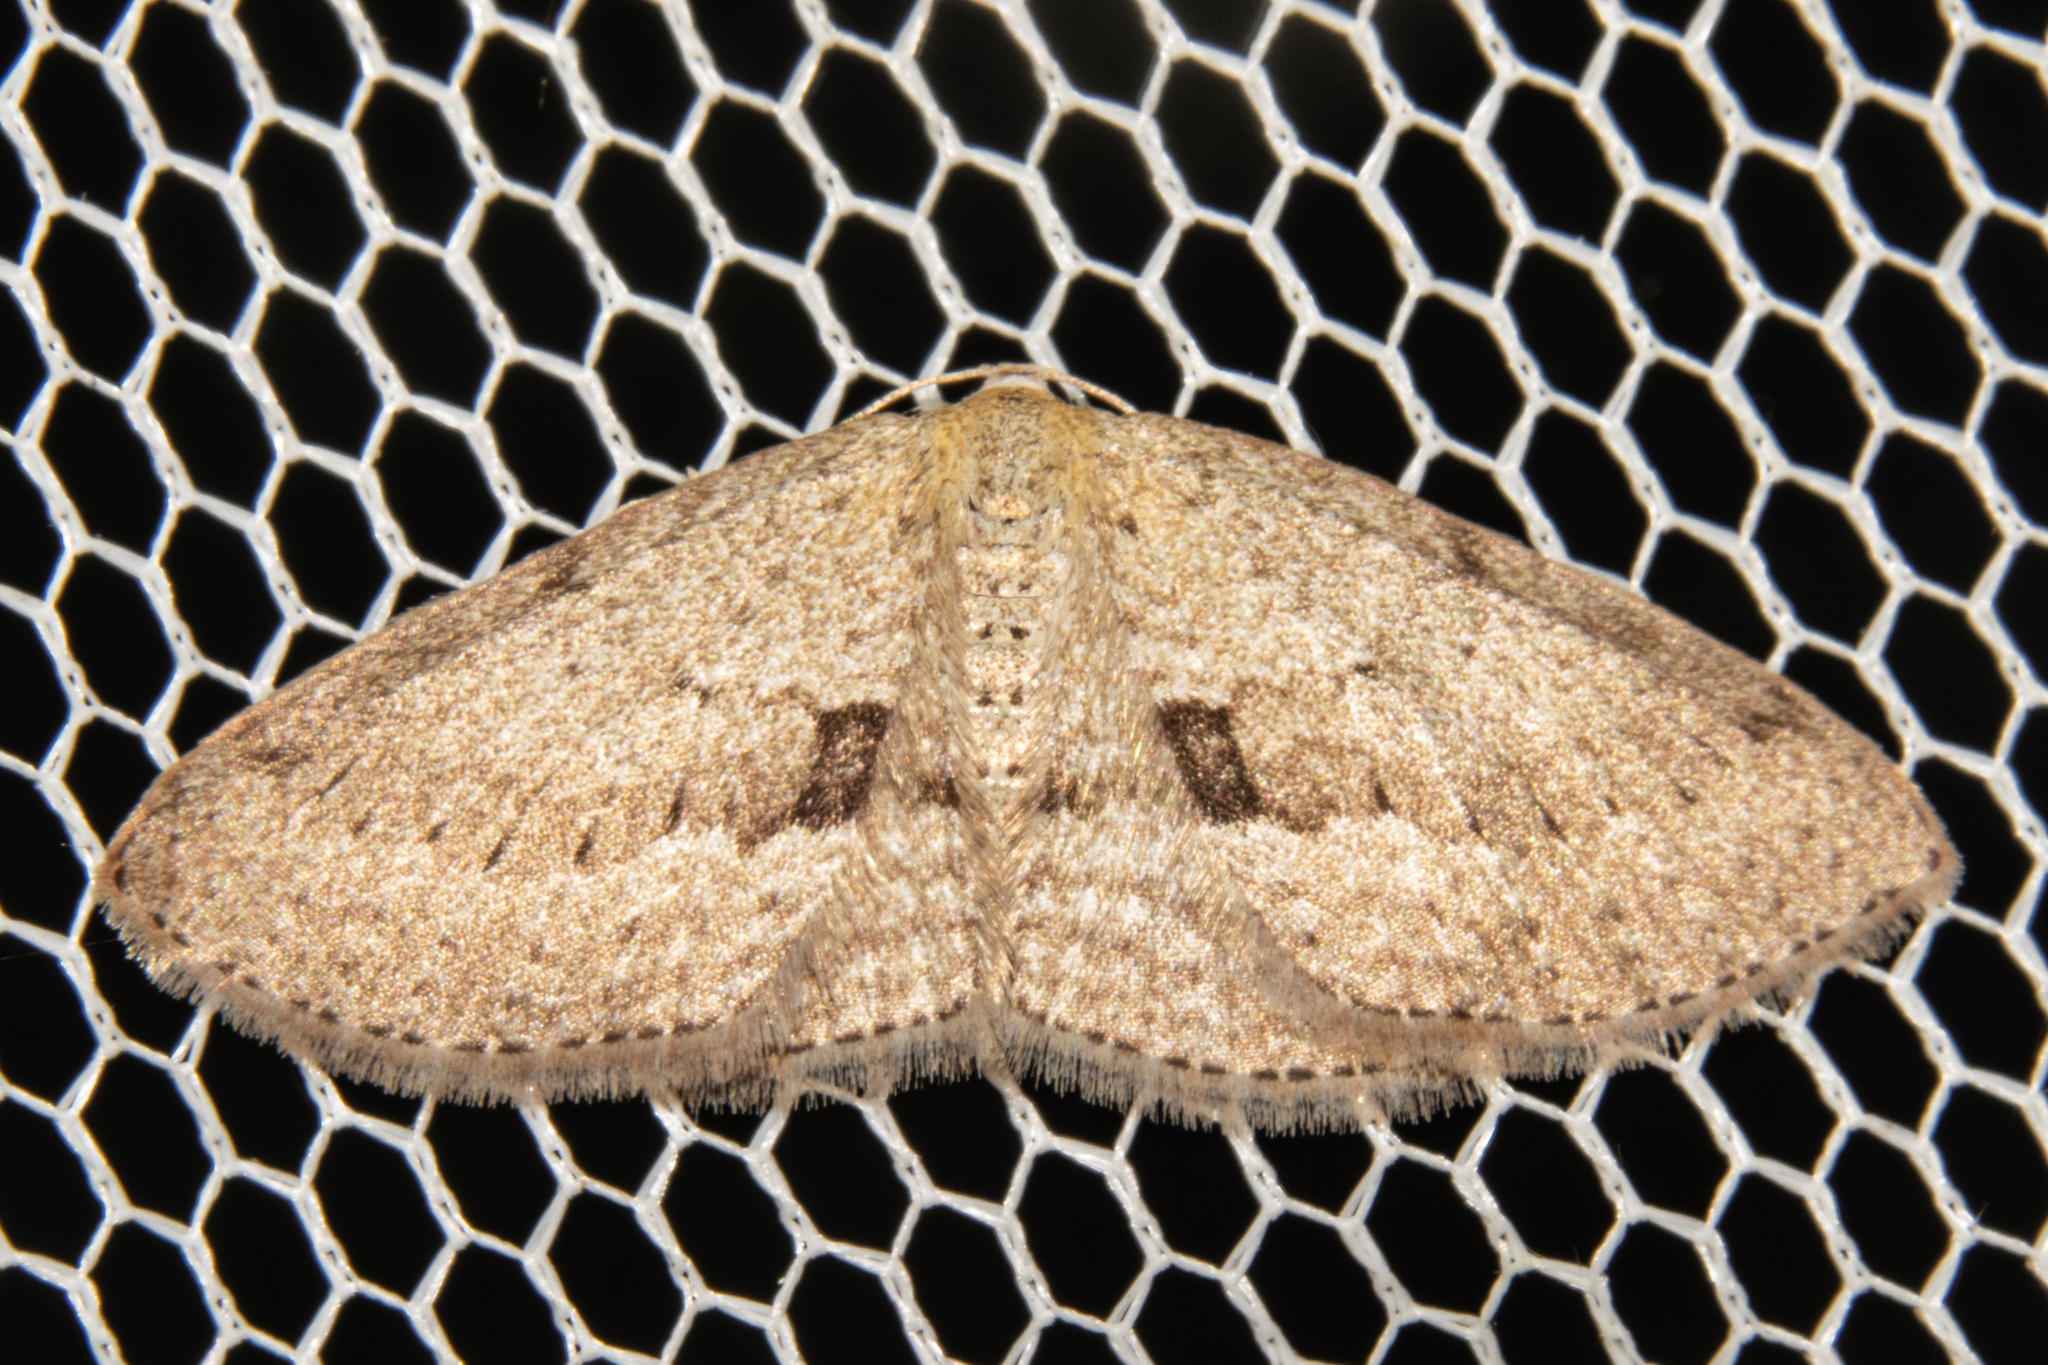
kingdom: Animalia
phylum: Arthropoda
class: Insecta
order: Lepidoptera
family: Geometridae
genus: Poecilasthena
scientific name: Poecilasthena schistaria
